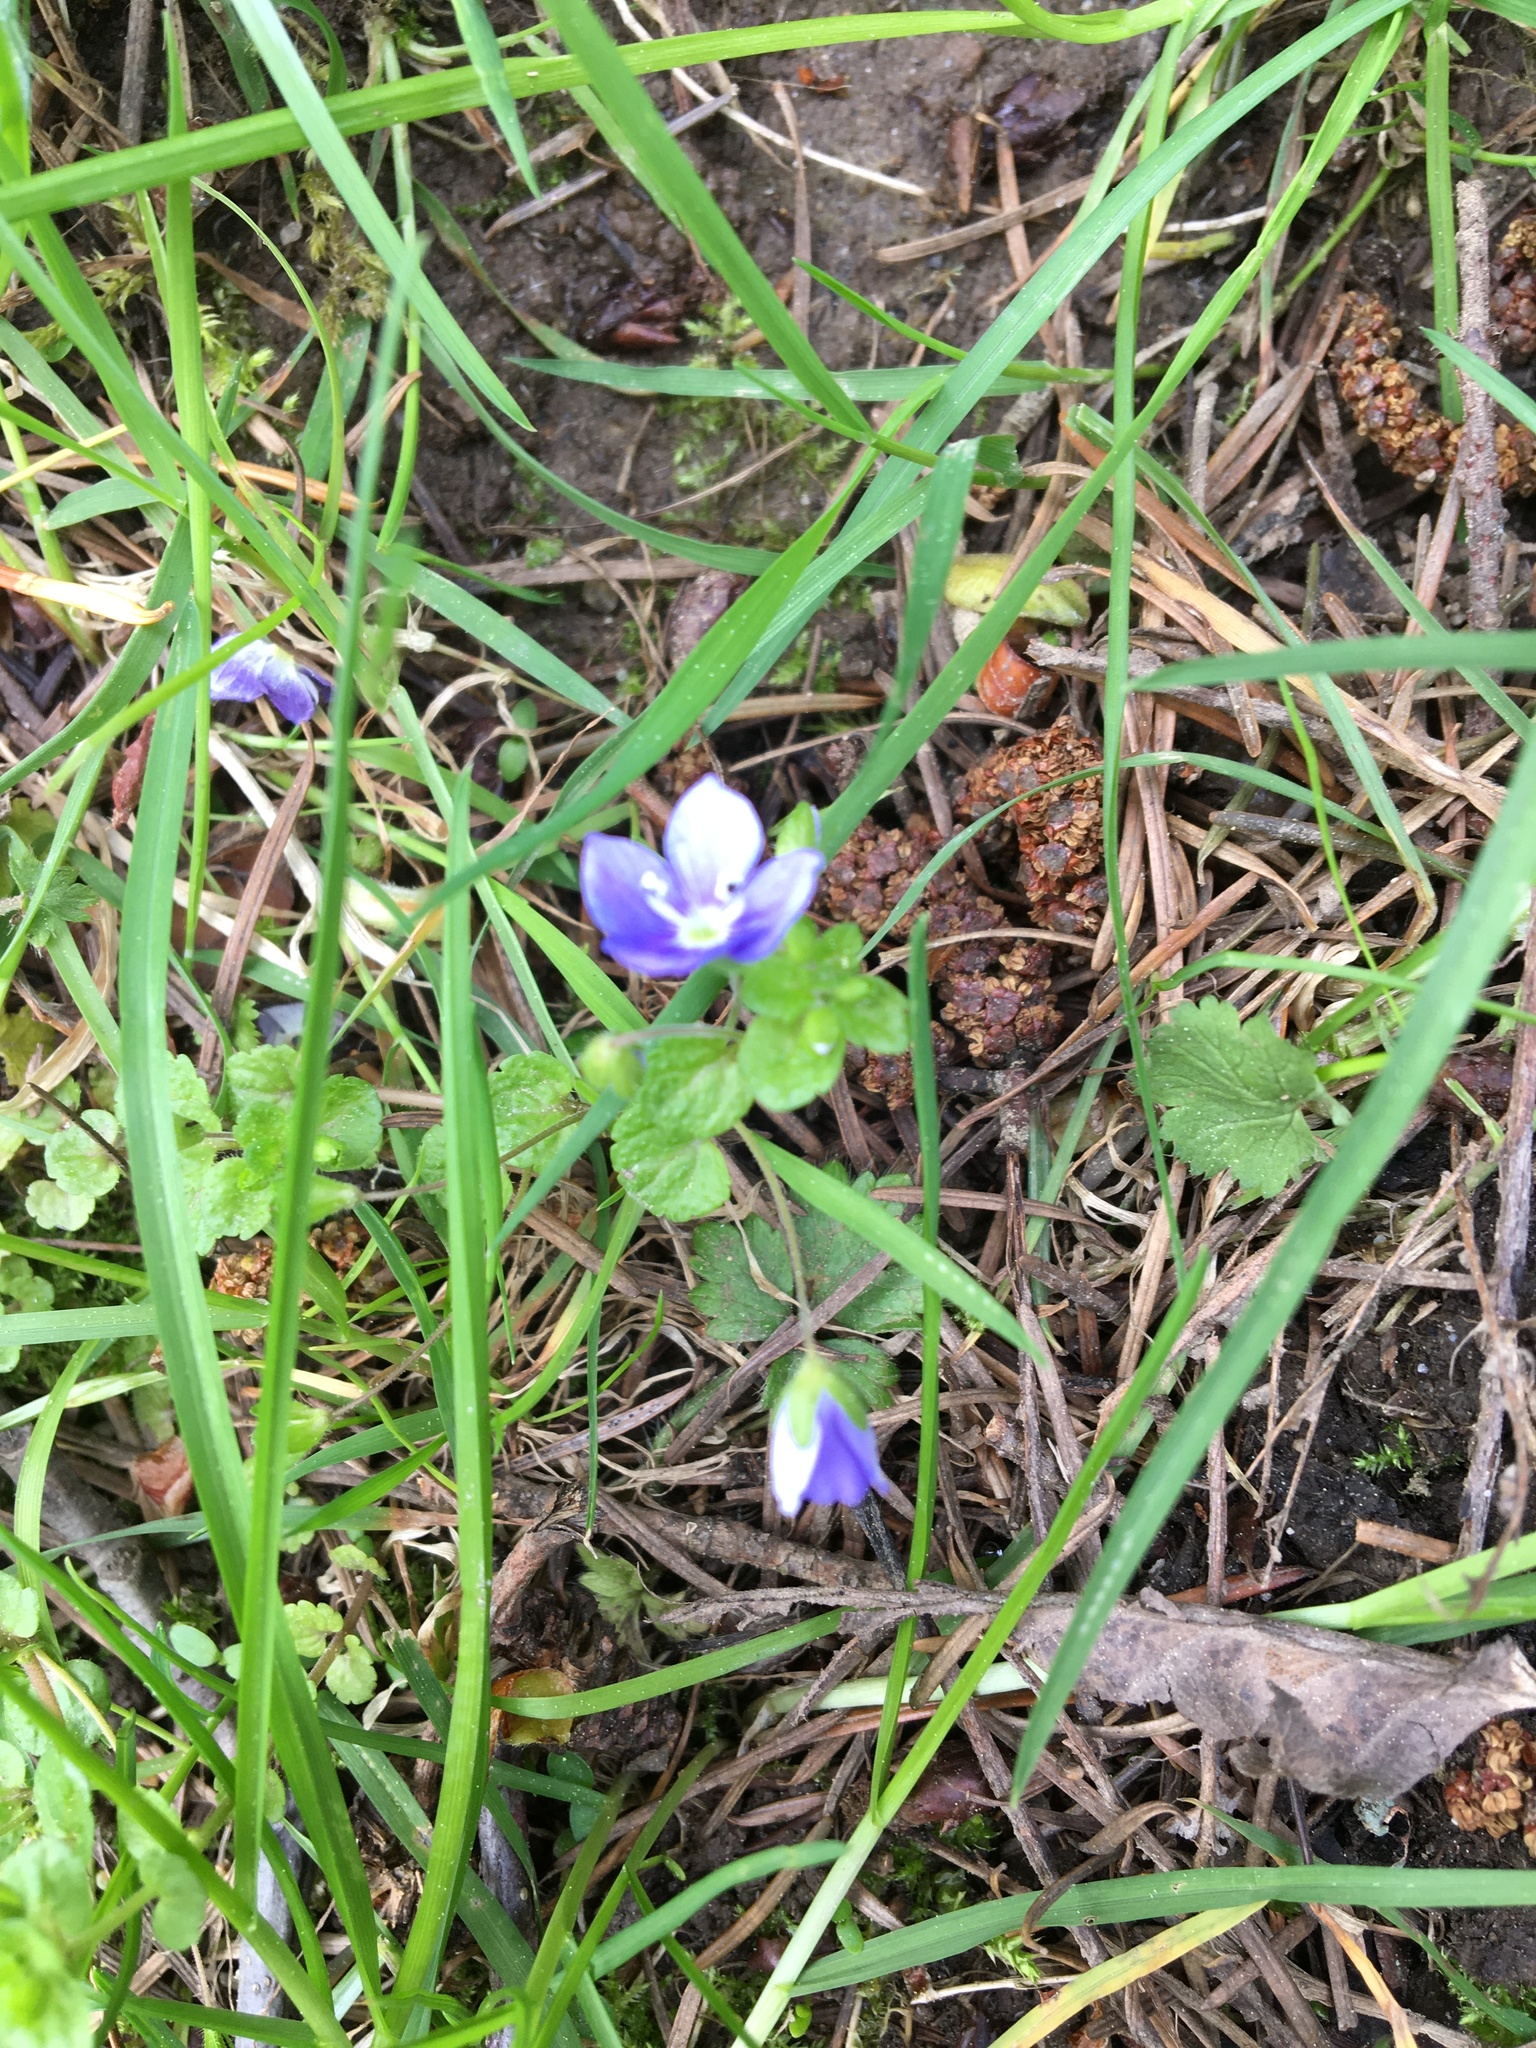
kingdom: Plantae
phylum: Tracheophyta
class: Magnoliopsida
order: Lamiales
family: Plantaginaceae
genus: Veronica
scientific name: Veronica filiformis
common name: Slender speedwell
